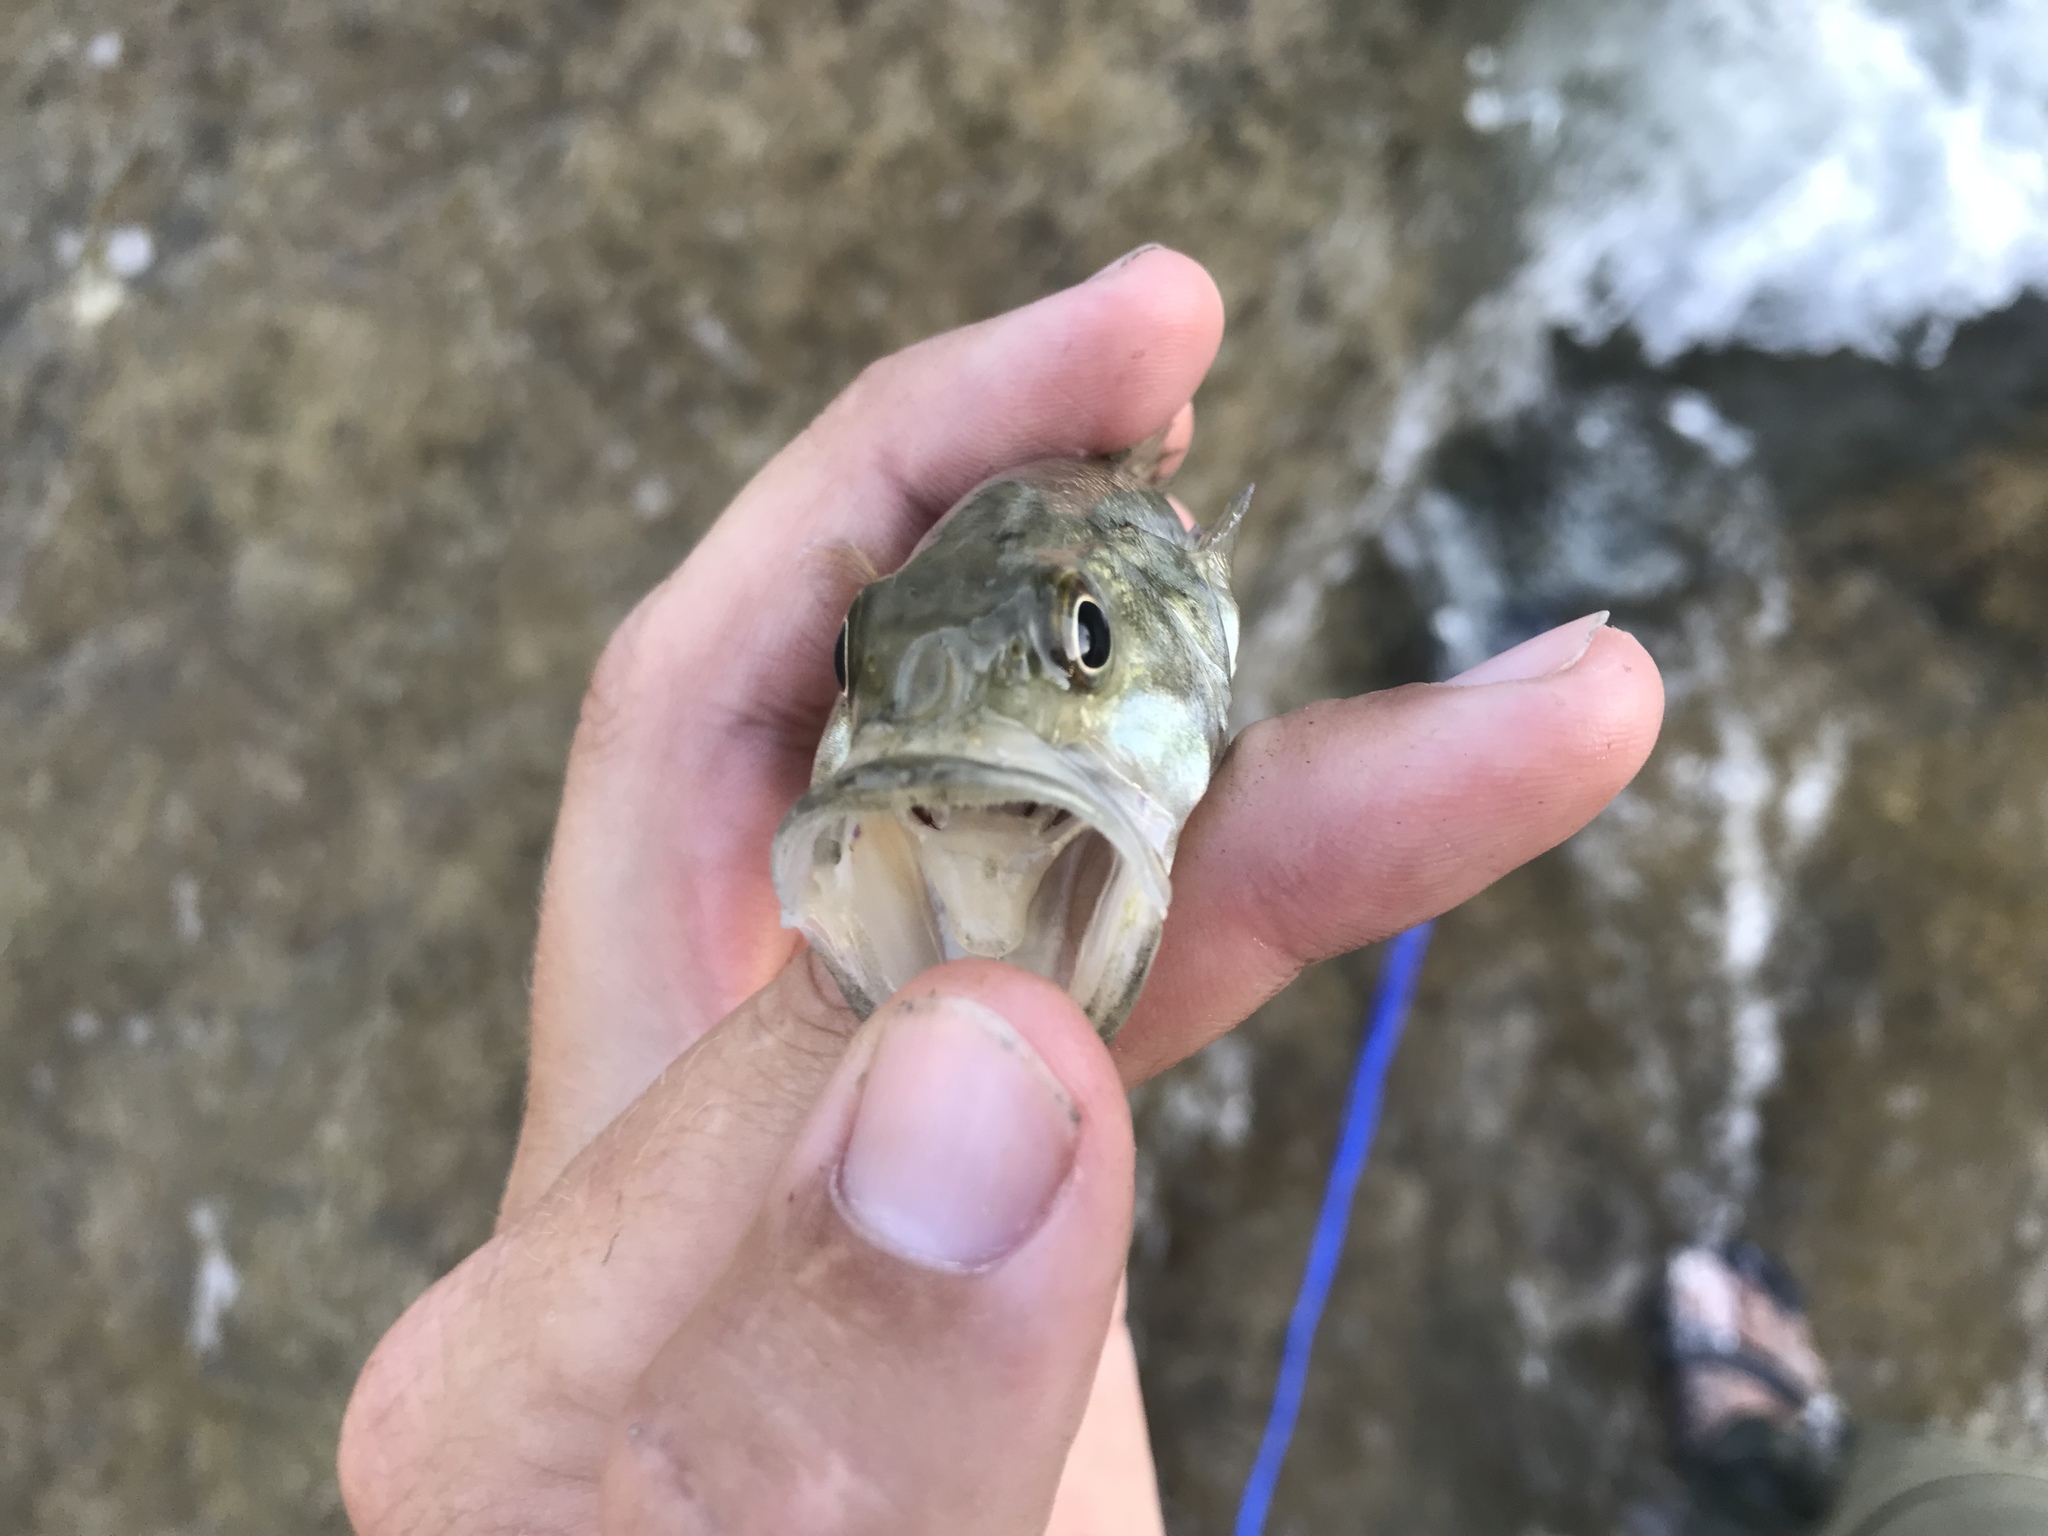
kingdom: Animalia
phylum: Chordata
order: Perciformes
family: Centrarchidae
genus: Micropterus
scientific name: Micropterus treculii
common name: Guadalupe bass
